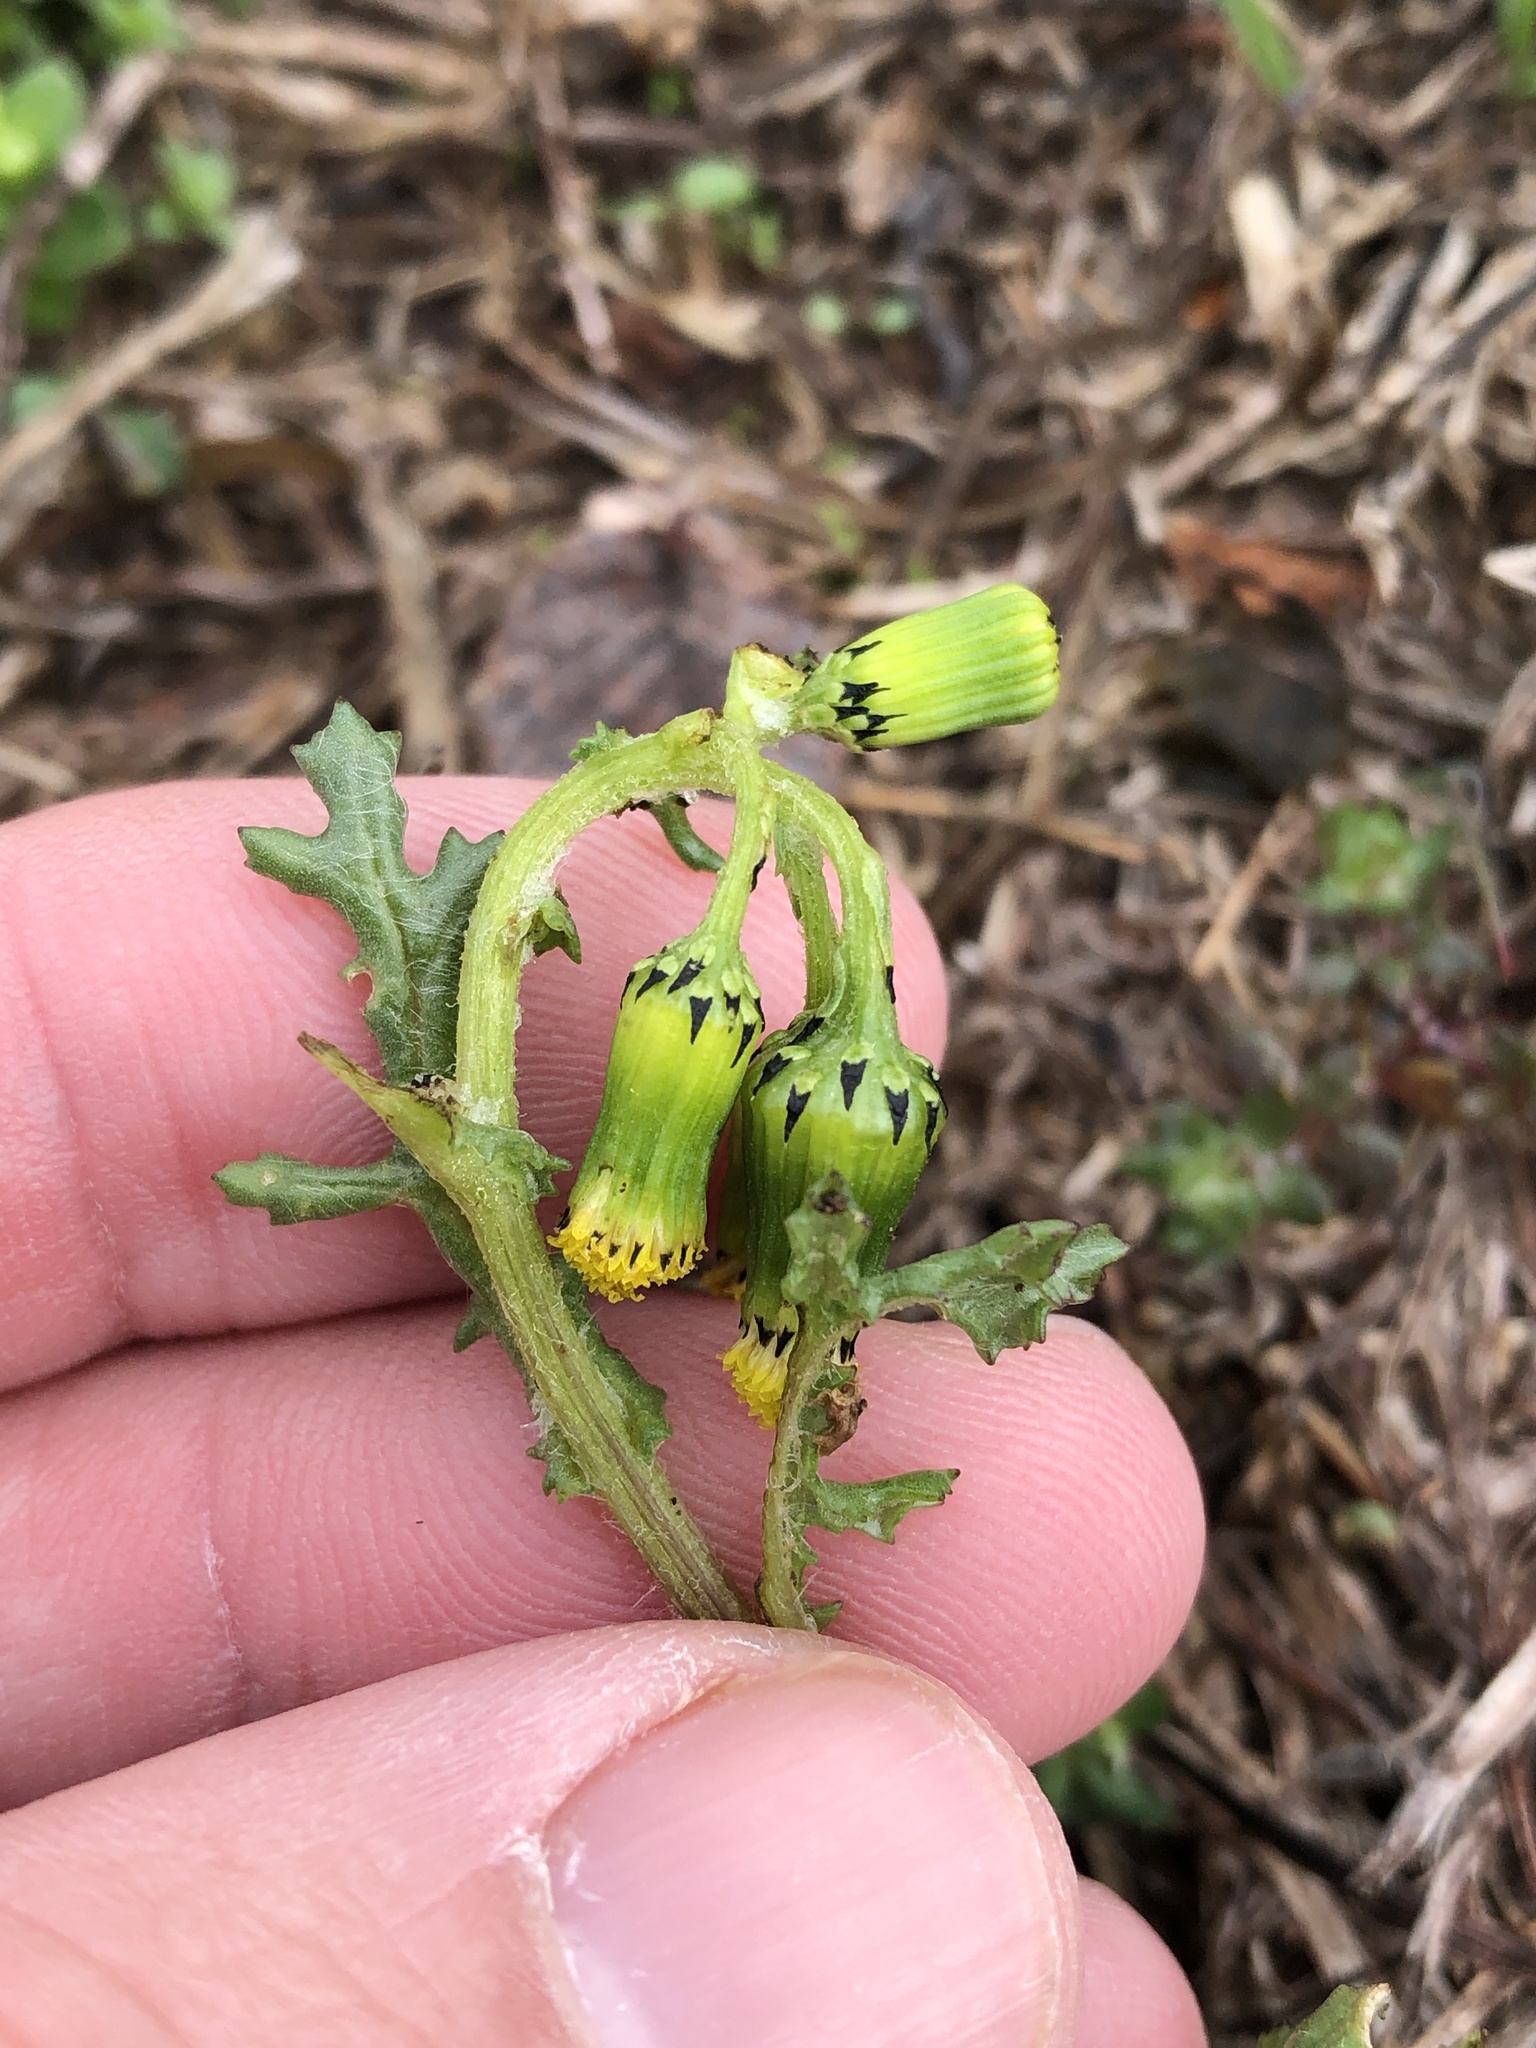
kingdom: Plantae
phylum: Tracheophyta
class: Magnoliopsida
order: Asterales
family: Asteraceae
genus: Senecio
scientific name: Senecio vulgaris
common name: Old-man-in-the-spring
